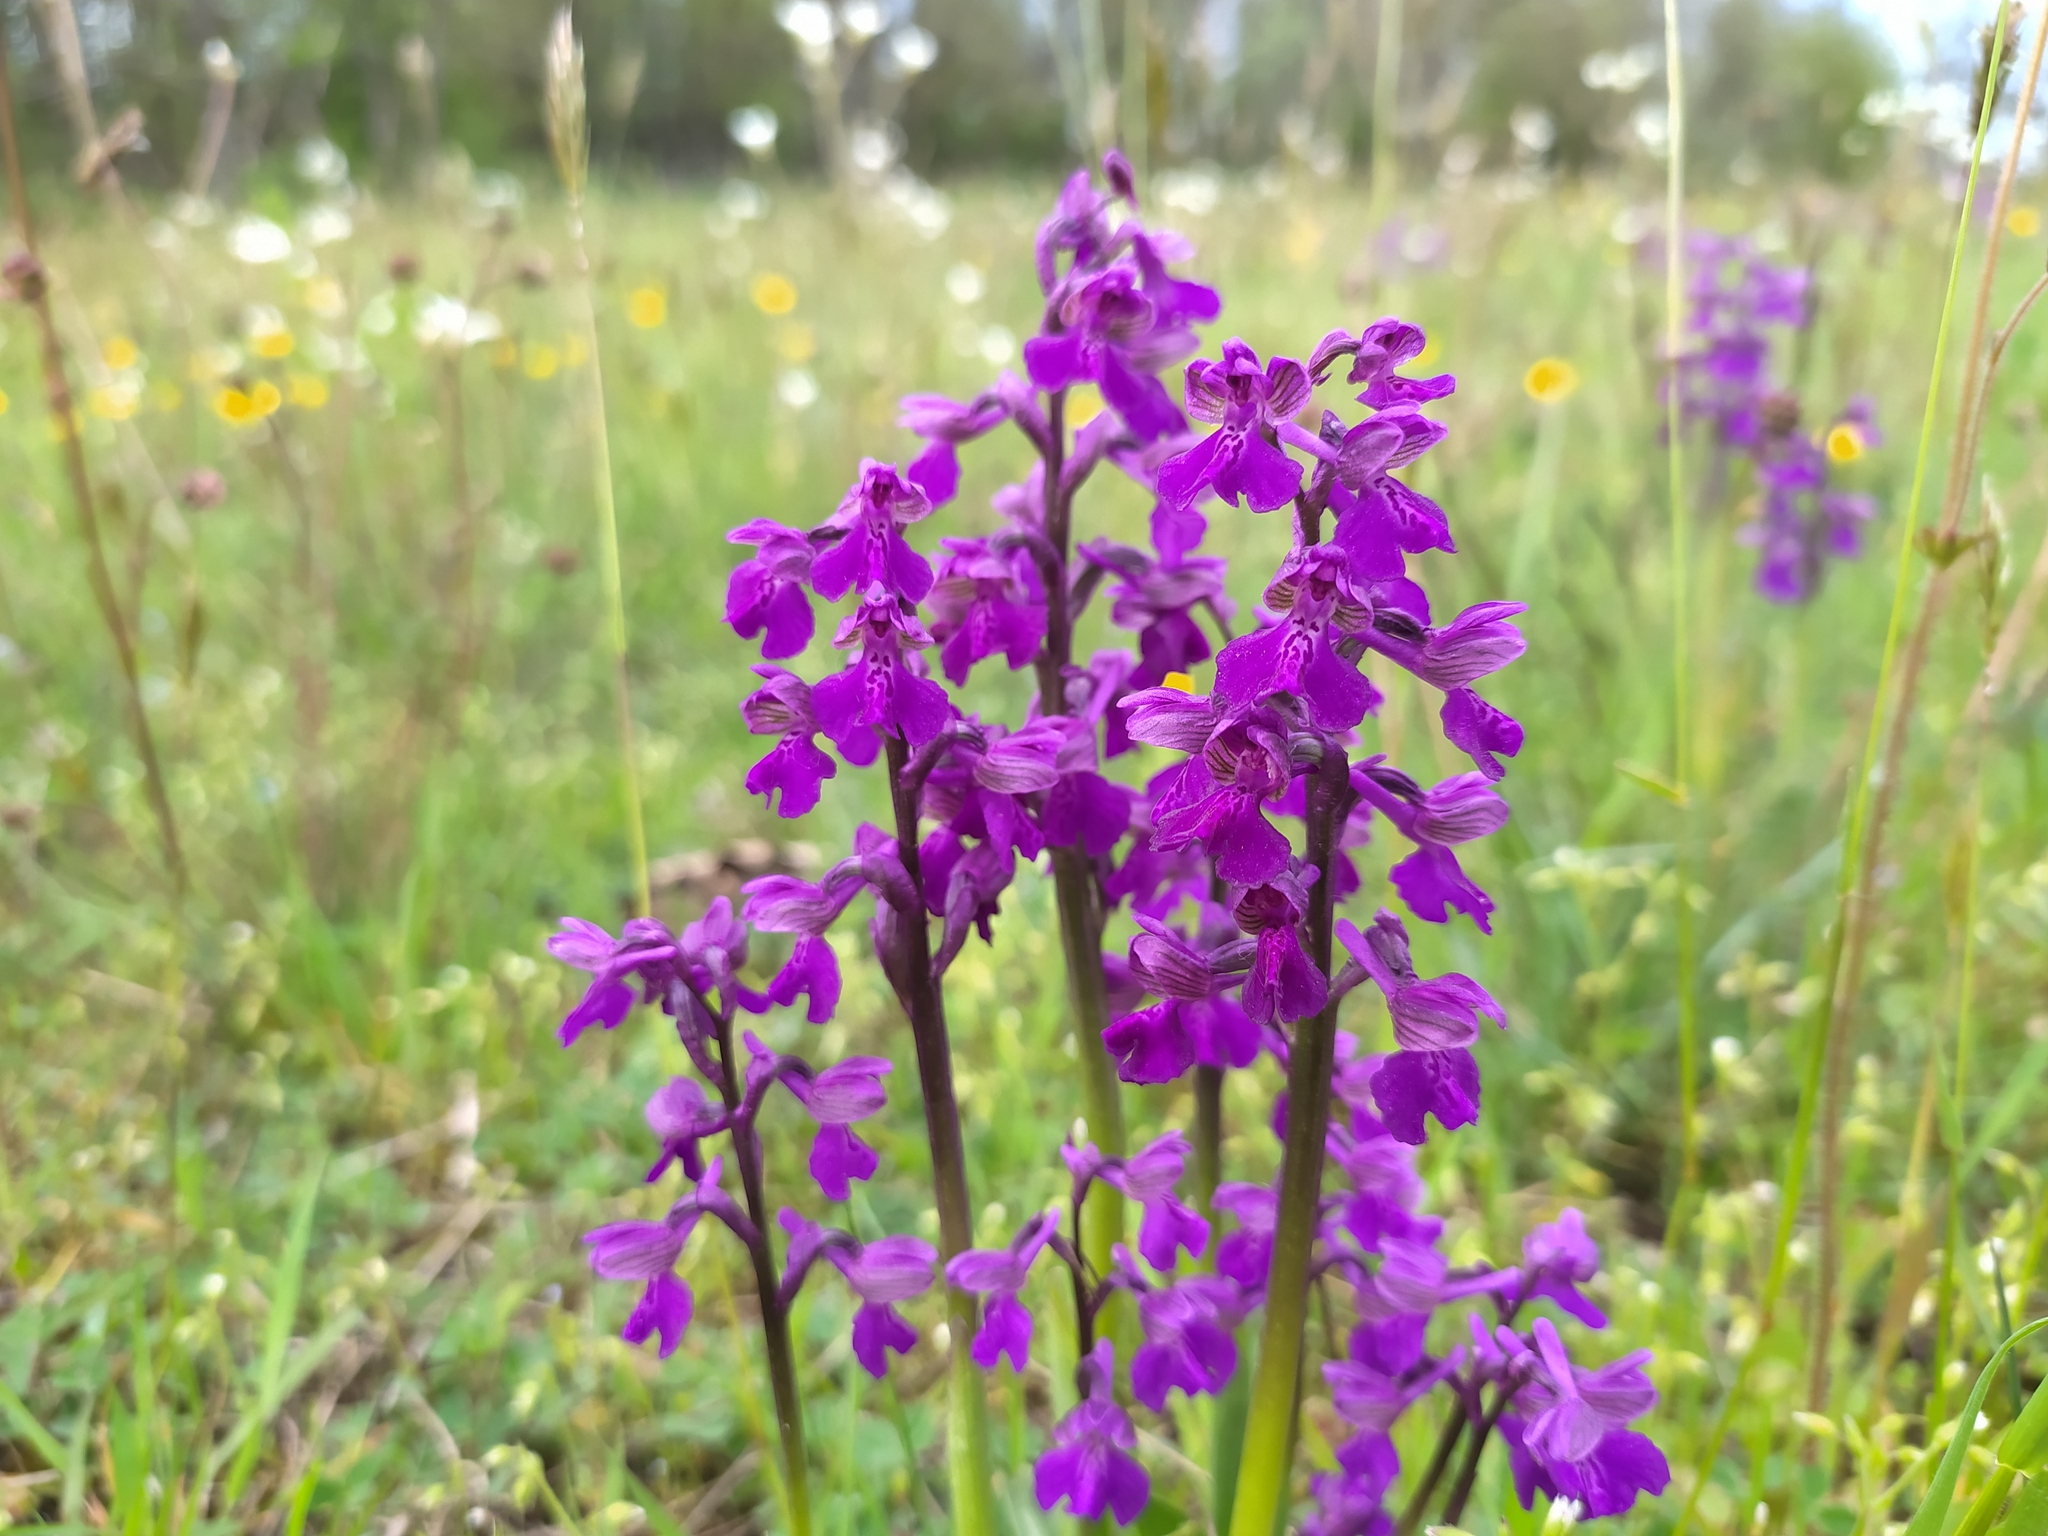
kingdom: Plantae
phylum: Tracheophyta
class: Liliopsida
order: Asparagales
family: Orchidaceae
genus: Anacamptis
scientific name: Anacamptis morio
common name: Green-winged orchid
